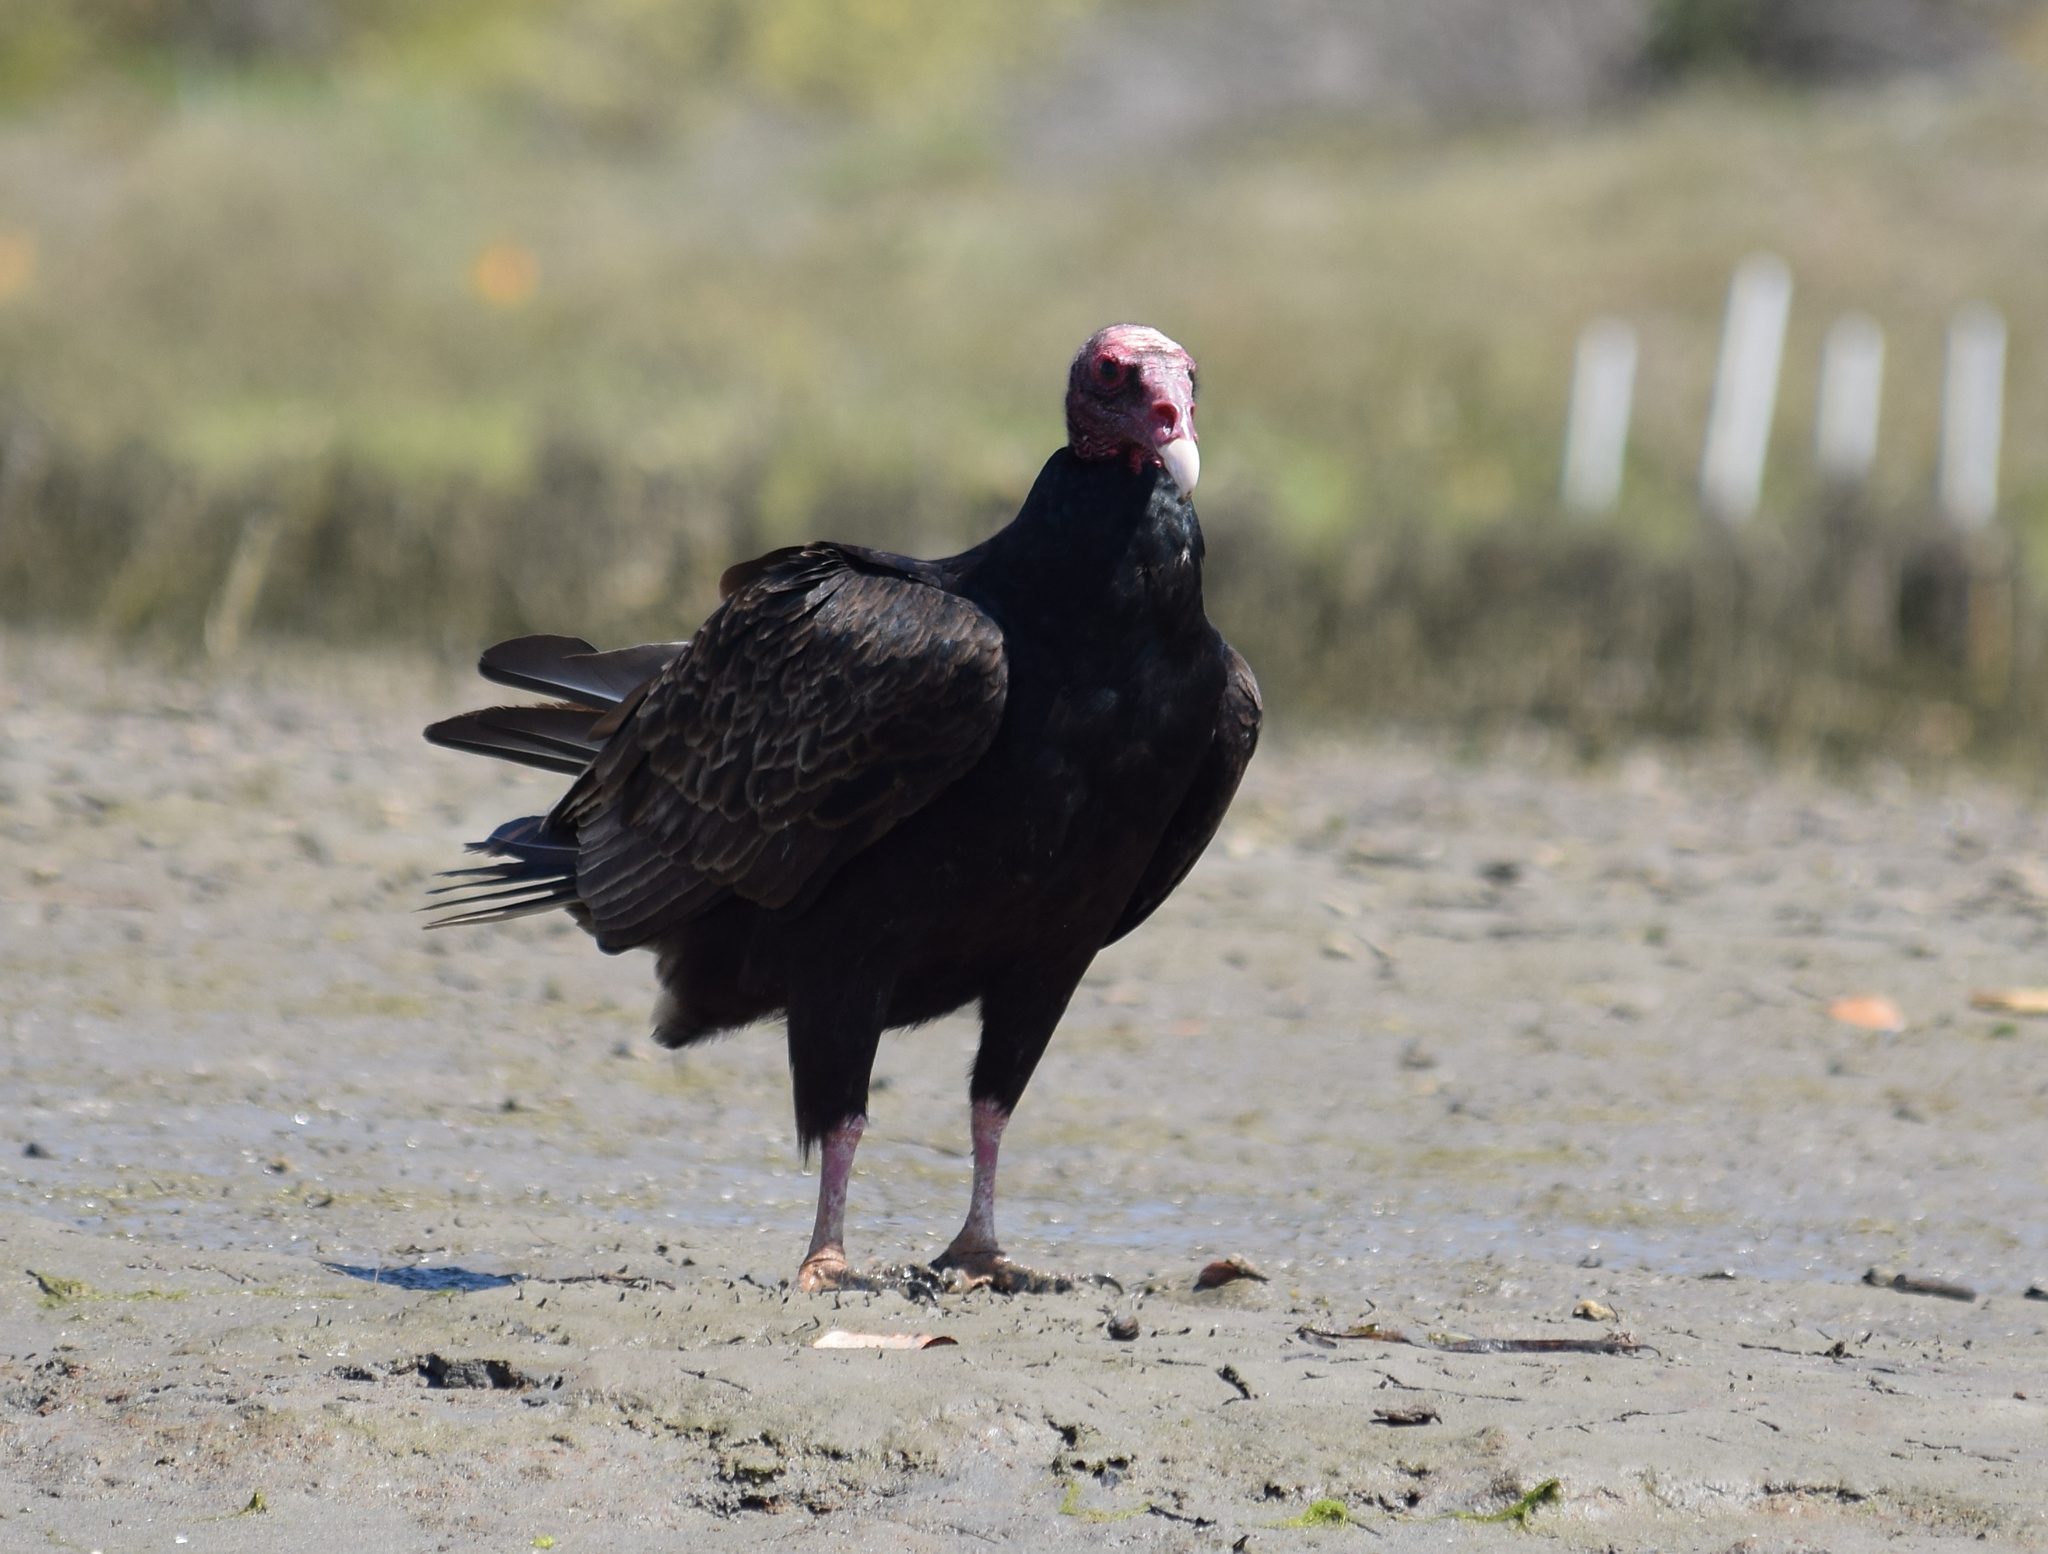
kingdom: Animalia
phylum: Chordata
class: Aves
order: Accipitriformes
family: Cathartidae
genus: Cathartes
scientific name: Cathartes aura
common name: Turkey vulture
